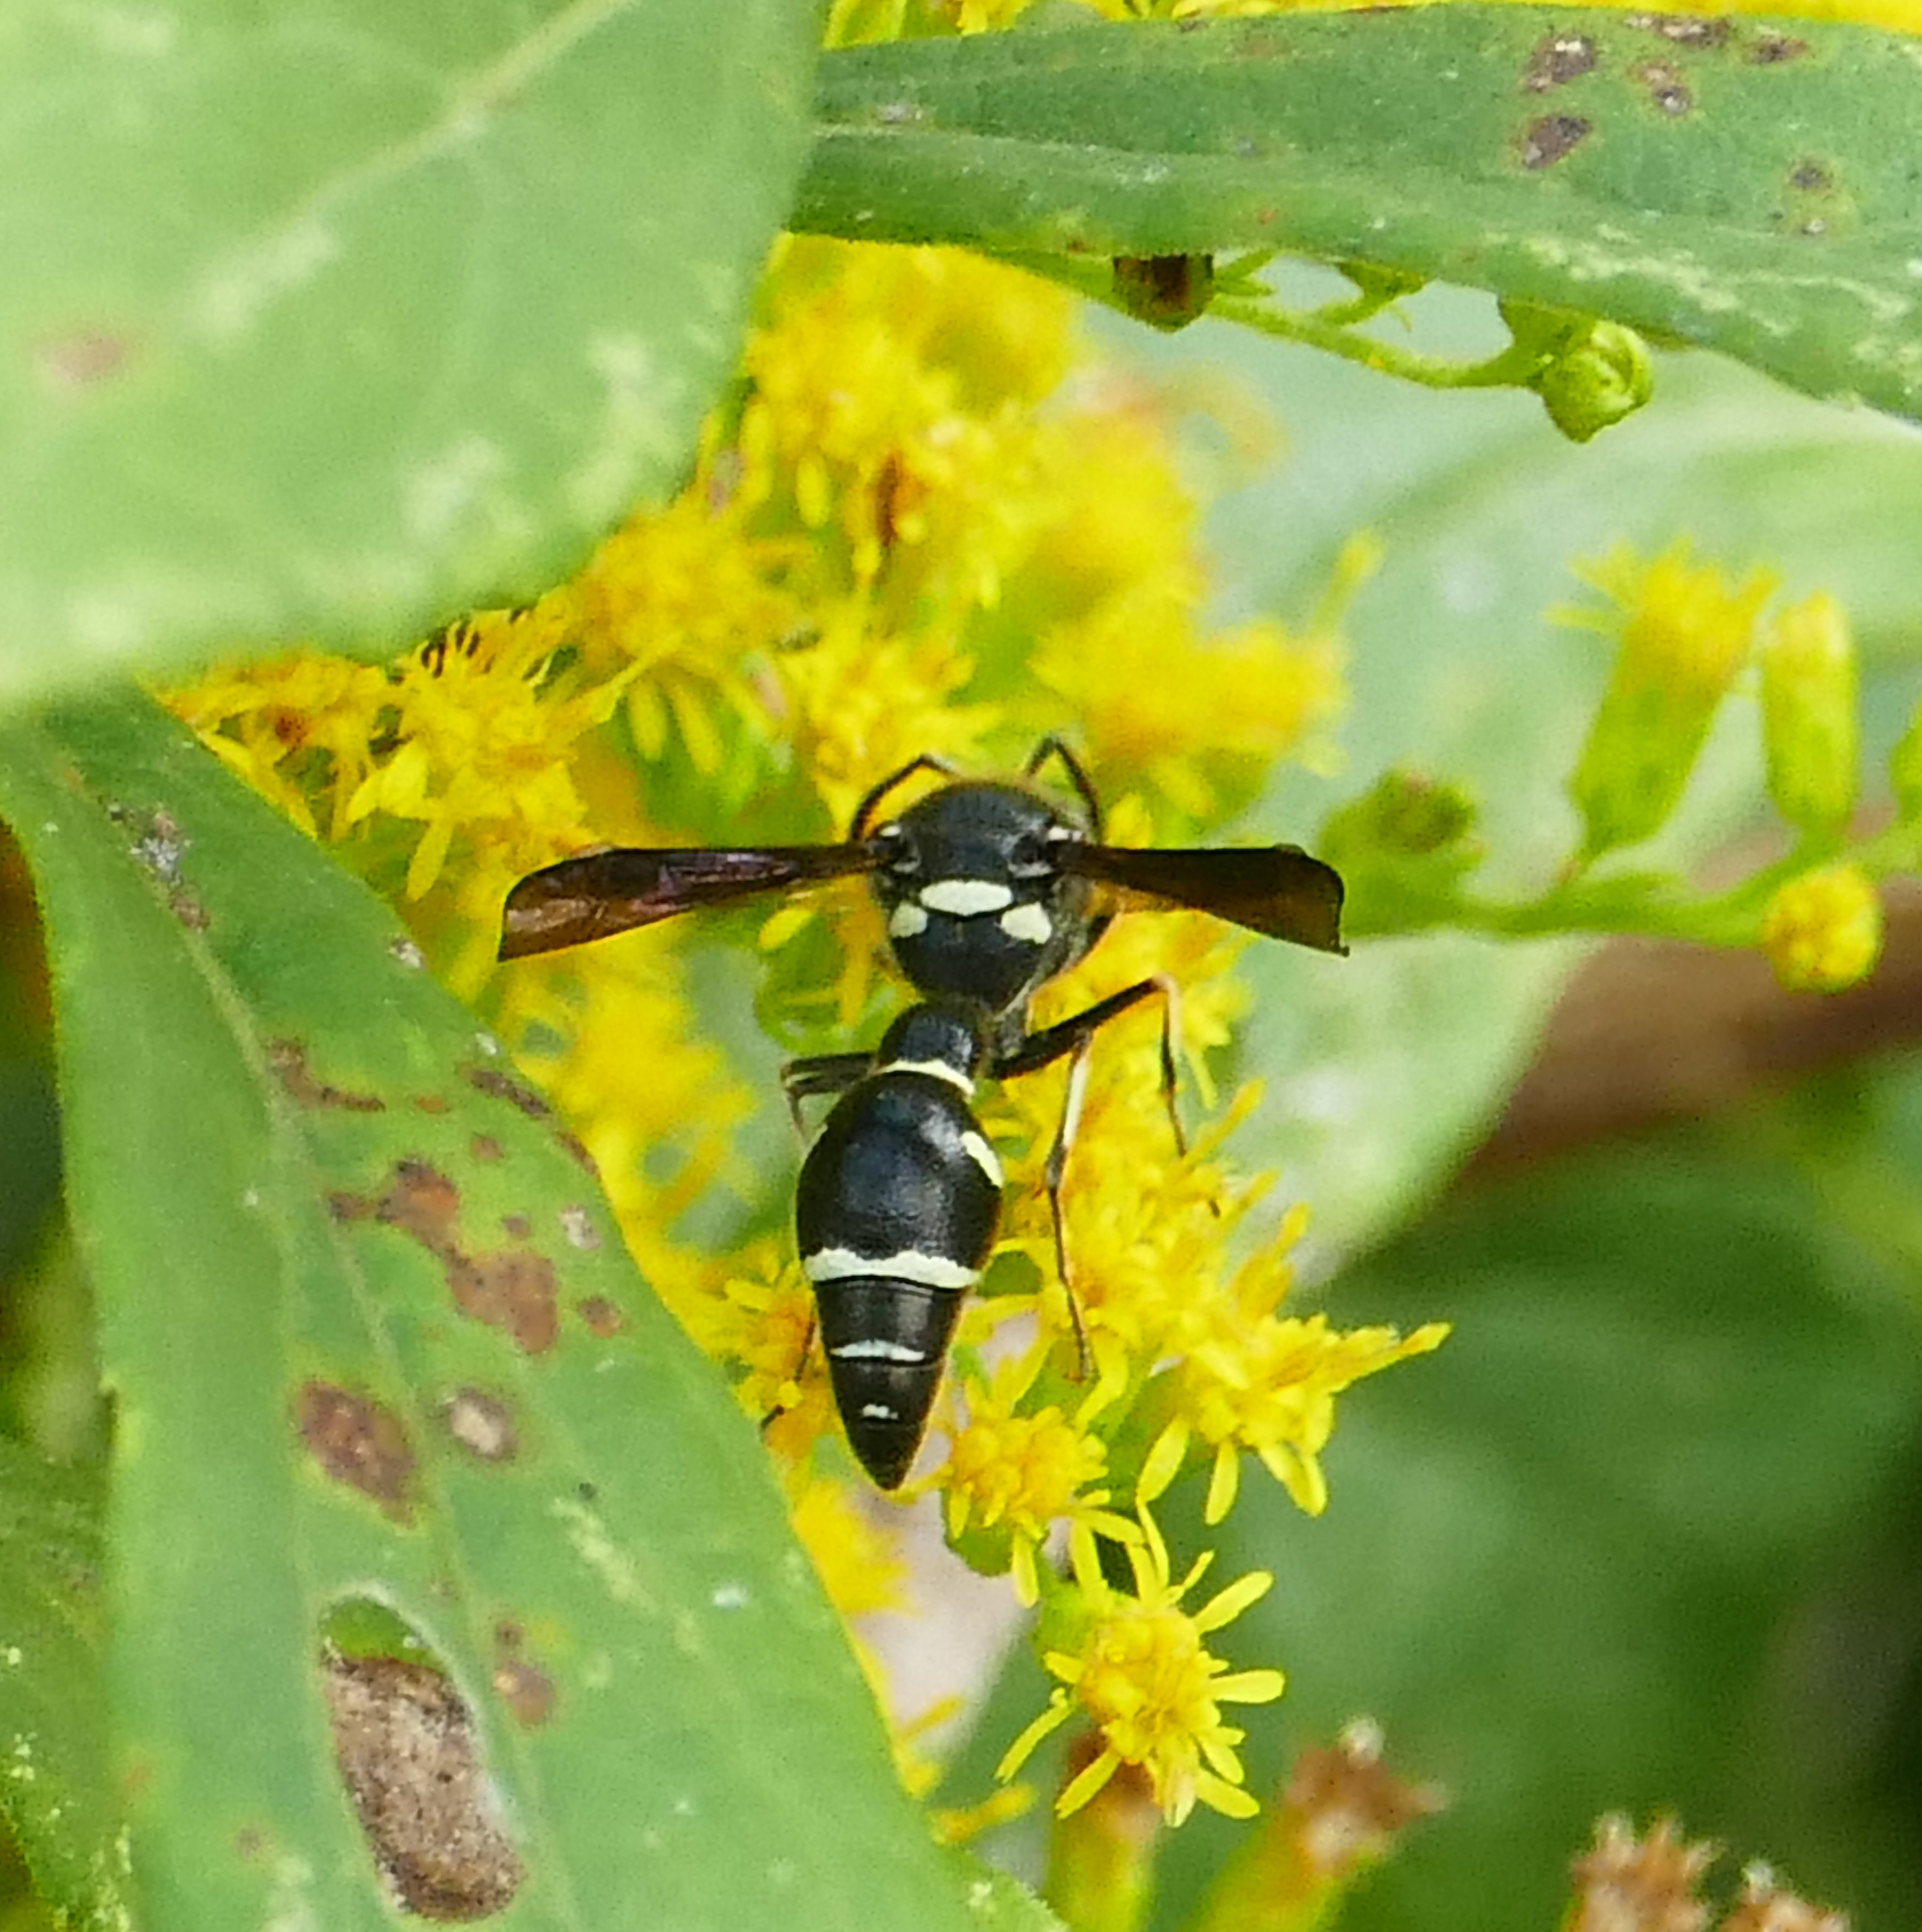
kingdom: Animalia
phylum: Arthropoda
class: Insecta
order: Hymenoptera
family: Vespidae
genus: Eumenes
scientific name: Eumenes fraternus
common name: Fraternal potter wasp
